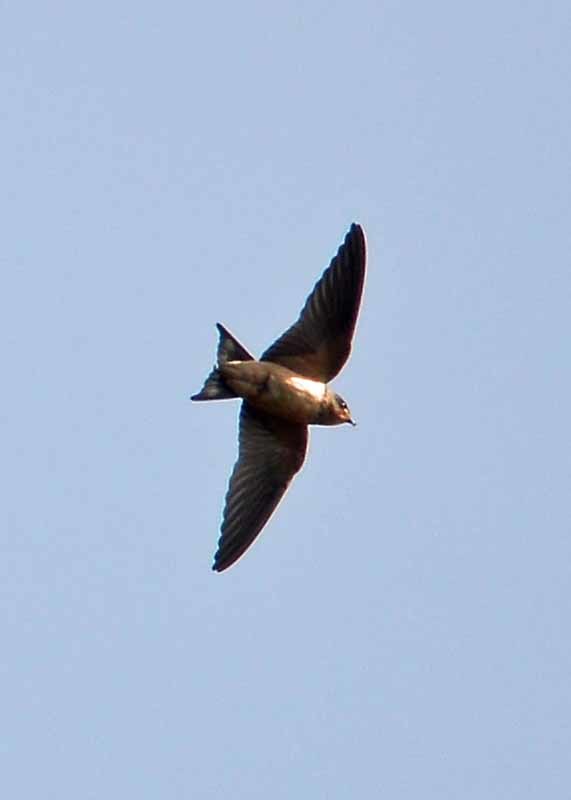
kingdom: Animalia
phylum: Chordata
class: Aves
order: Passeriformes
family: Hirundinidae
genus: Hirundo
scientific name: Hirundo rustica
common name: Barn swallow
